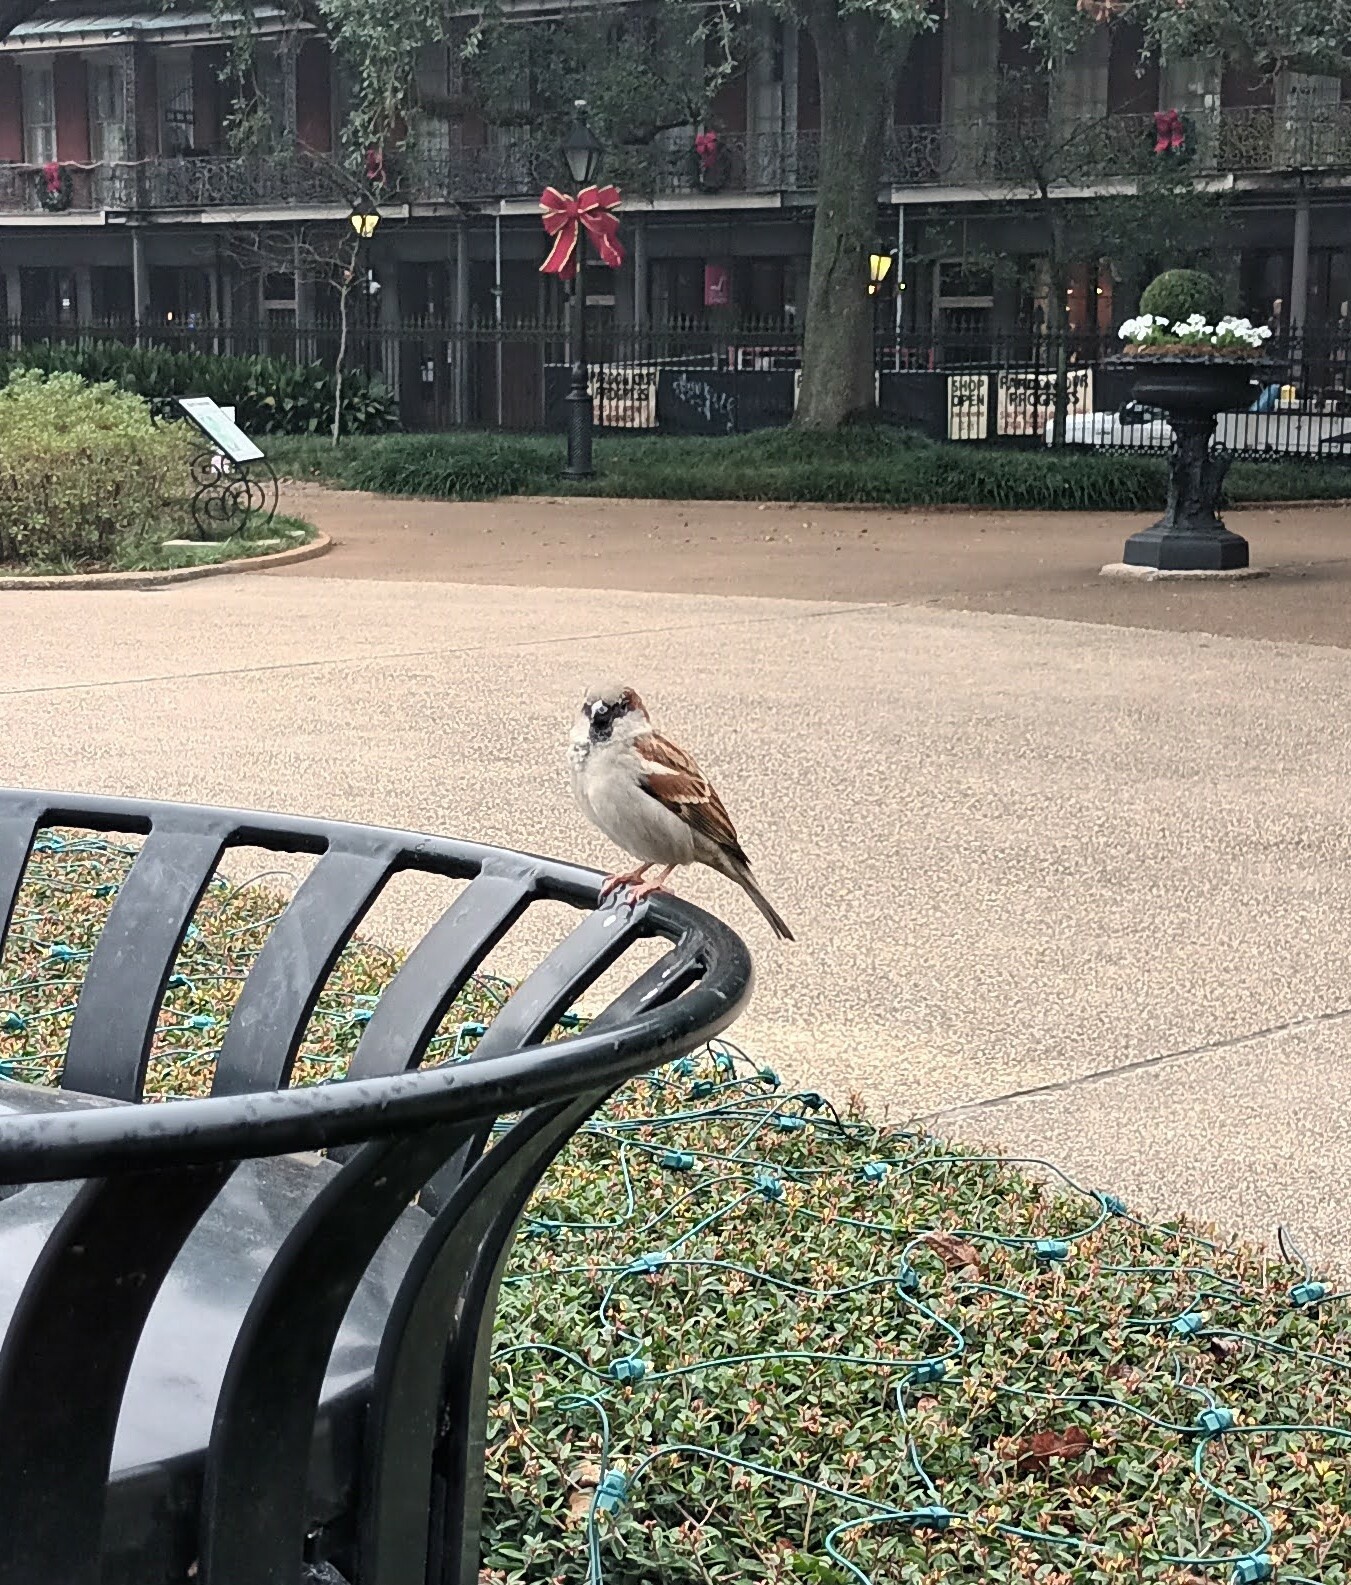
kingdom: Animalia
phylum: Chordata
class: Aves
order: Passeriformes
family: Passeridae
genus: Passer
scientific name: Passer domesticus
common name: House sparrow
